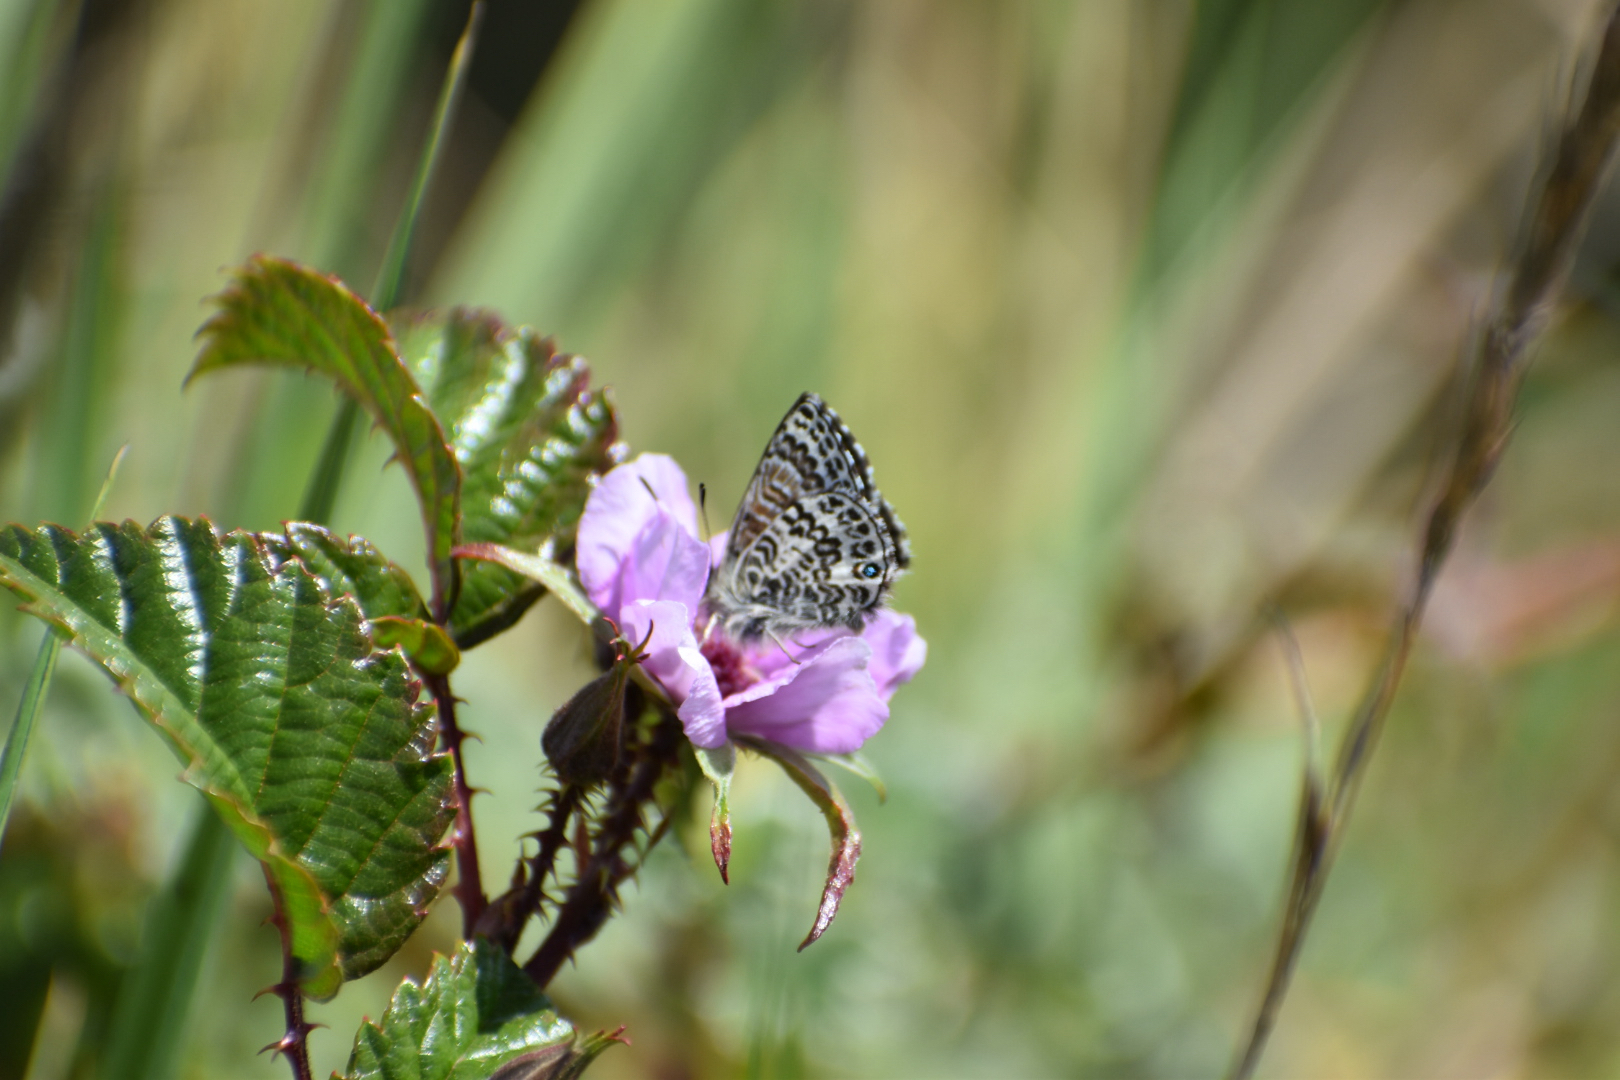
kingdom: Animalia
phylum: Arthropoda
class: Insecta
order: Lepidoptera
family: Lycaenidae
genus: Harpendyreus
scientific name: Harpendyreus reginaldi
